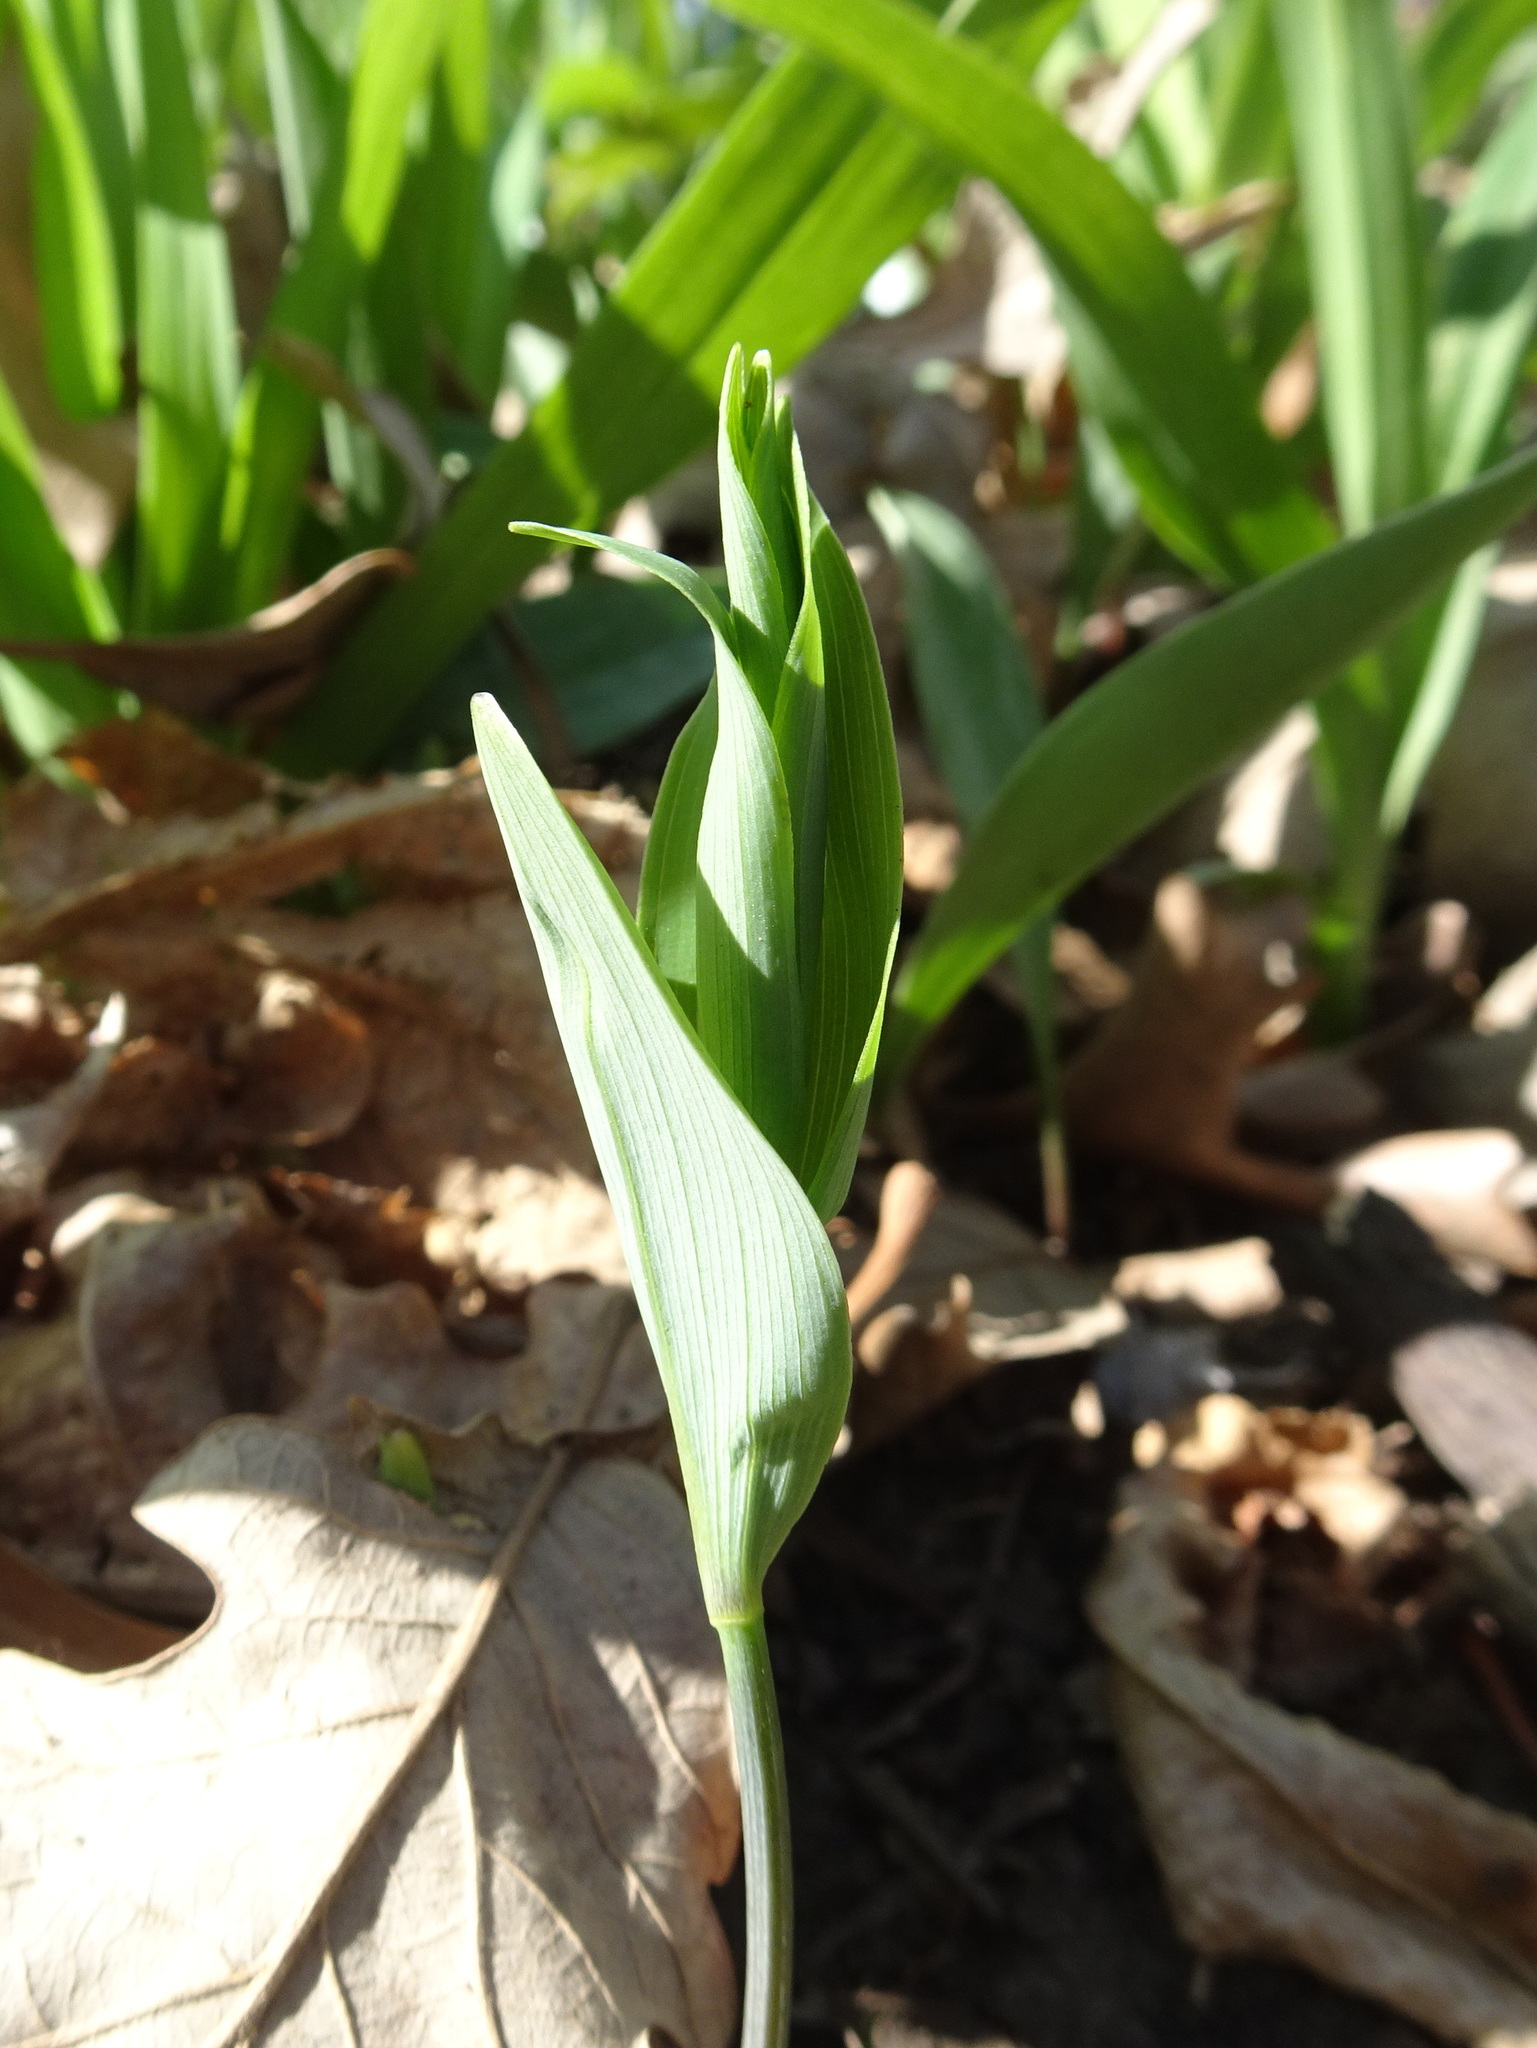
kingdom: Plantae
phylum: Tracheophyta
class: Liliopsida
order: Asparagales
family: Asparagaceae
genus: Polygonatum
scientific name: Polygonatum biflorum
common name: American solomon's-seal
